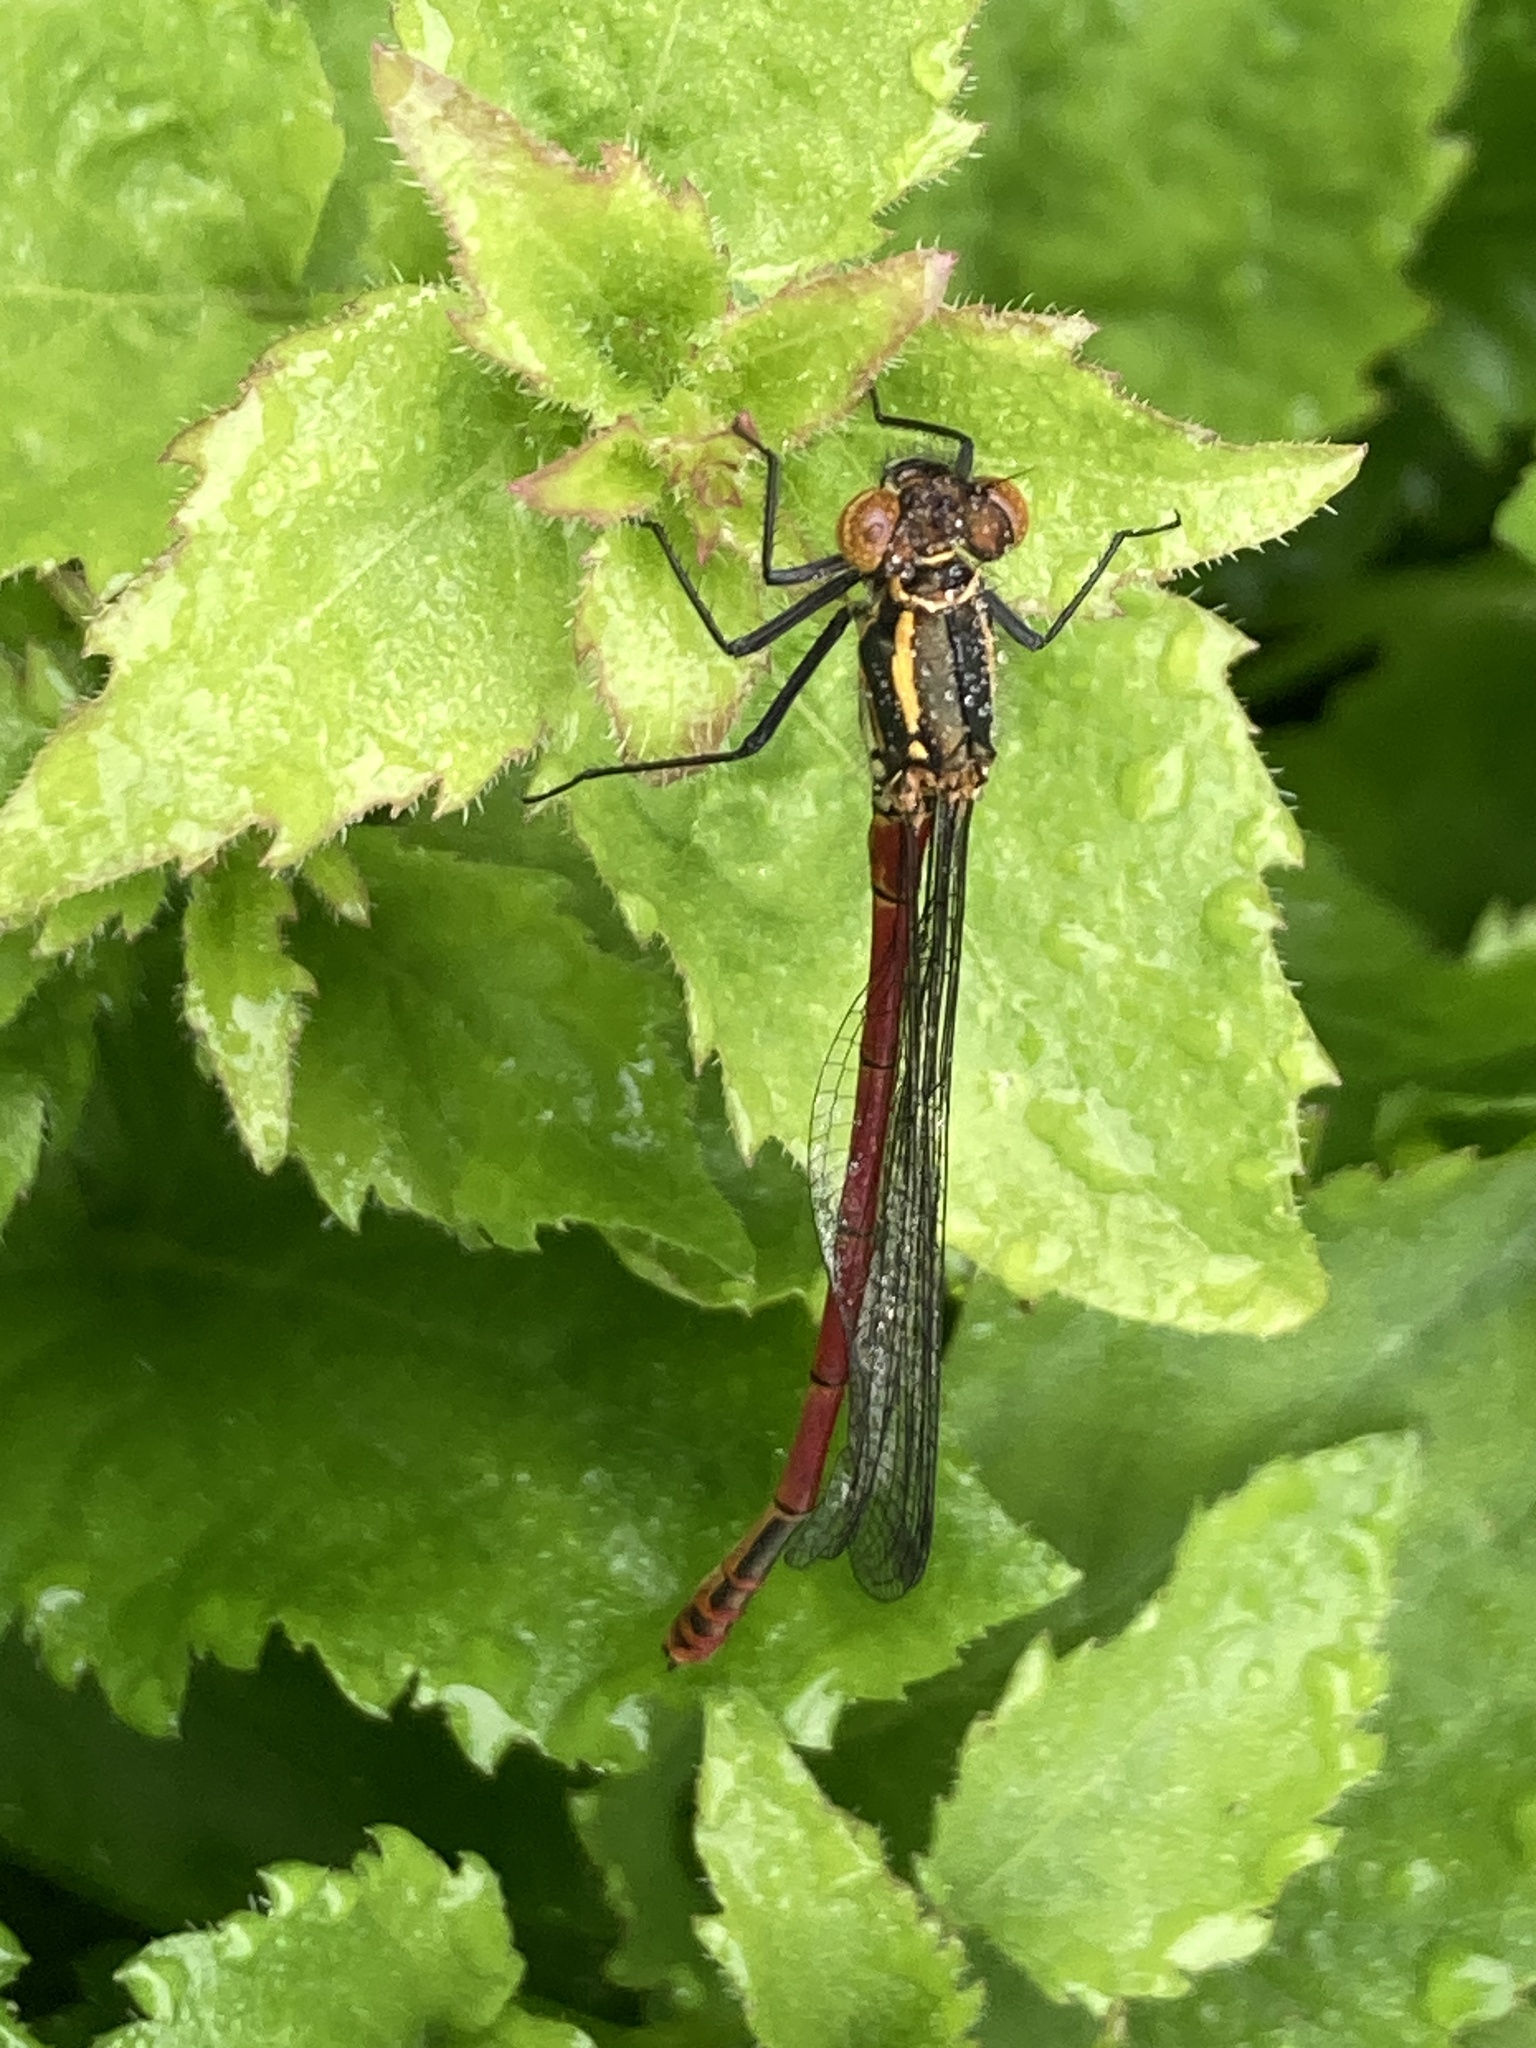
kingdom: Animalia
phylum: Arthropoda
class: Insecta
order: Odonata
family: Coenagrionidae
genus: Pyrrhosoma
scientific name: Pyrrhosoma nymphula
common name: Large red damsel
